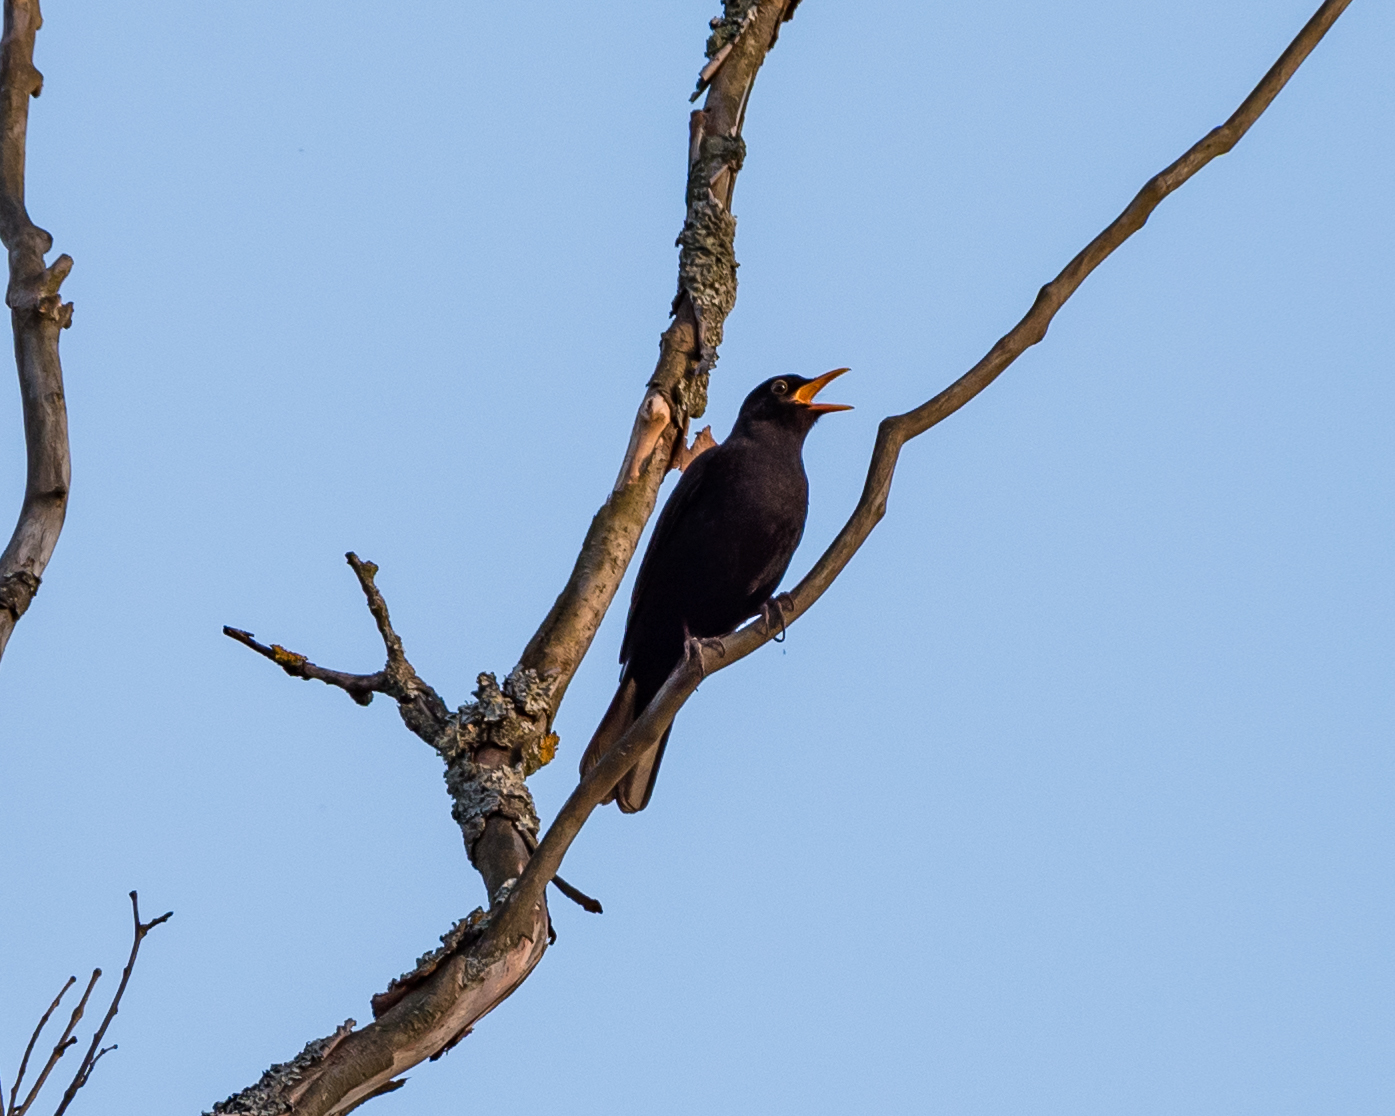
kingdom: Animalia
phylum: Chordata
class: Aves
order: Passeriformes
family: Turdidae
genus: Turdus
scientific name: Turdus merula
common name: Common blackbird
